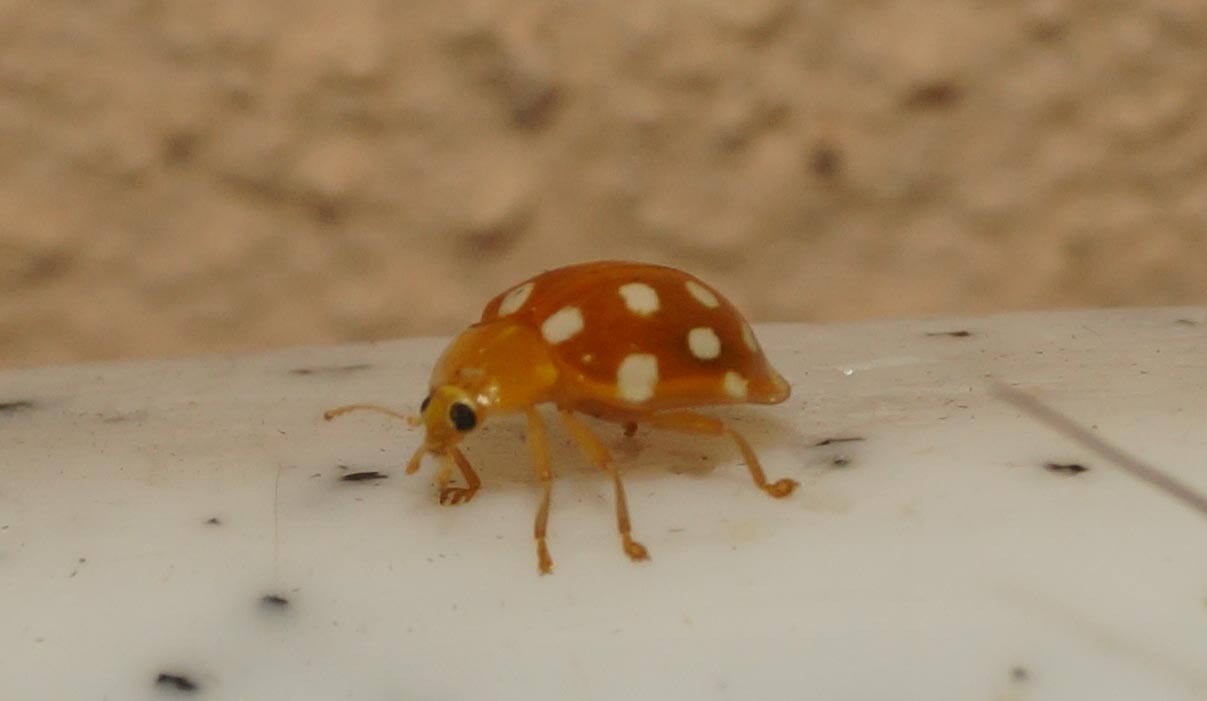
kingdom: Animalia
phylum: Arthropoda
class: Insecta
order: Coleoptera
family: Coccinellidae
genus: Halyzia
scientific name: Halyzia sedecimguttata
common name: Orange ladybird
